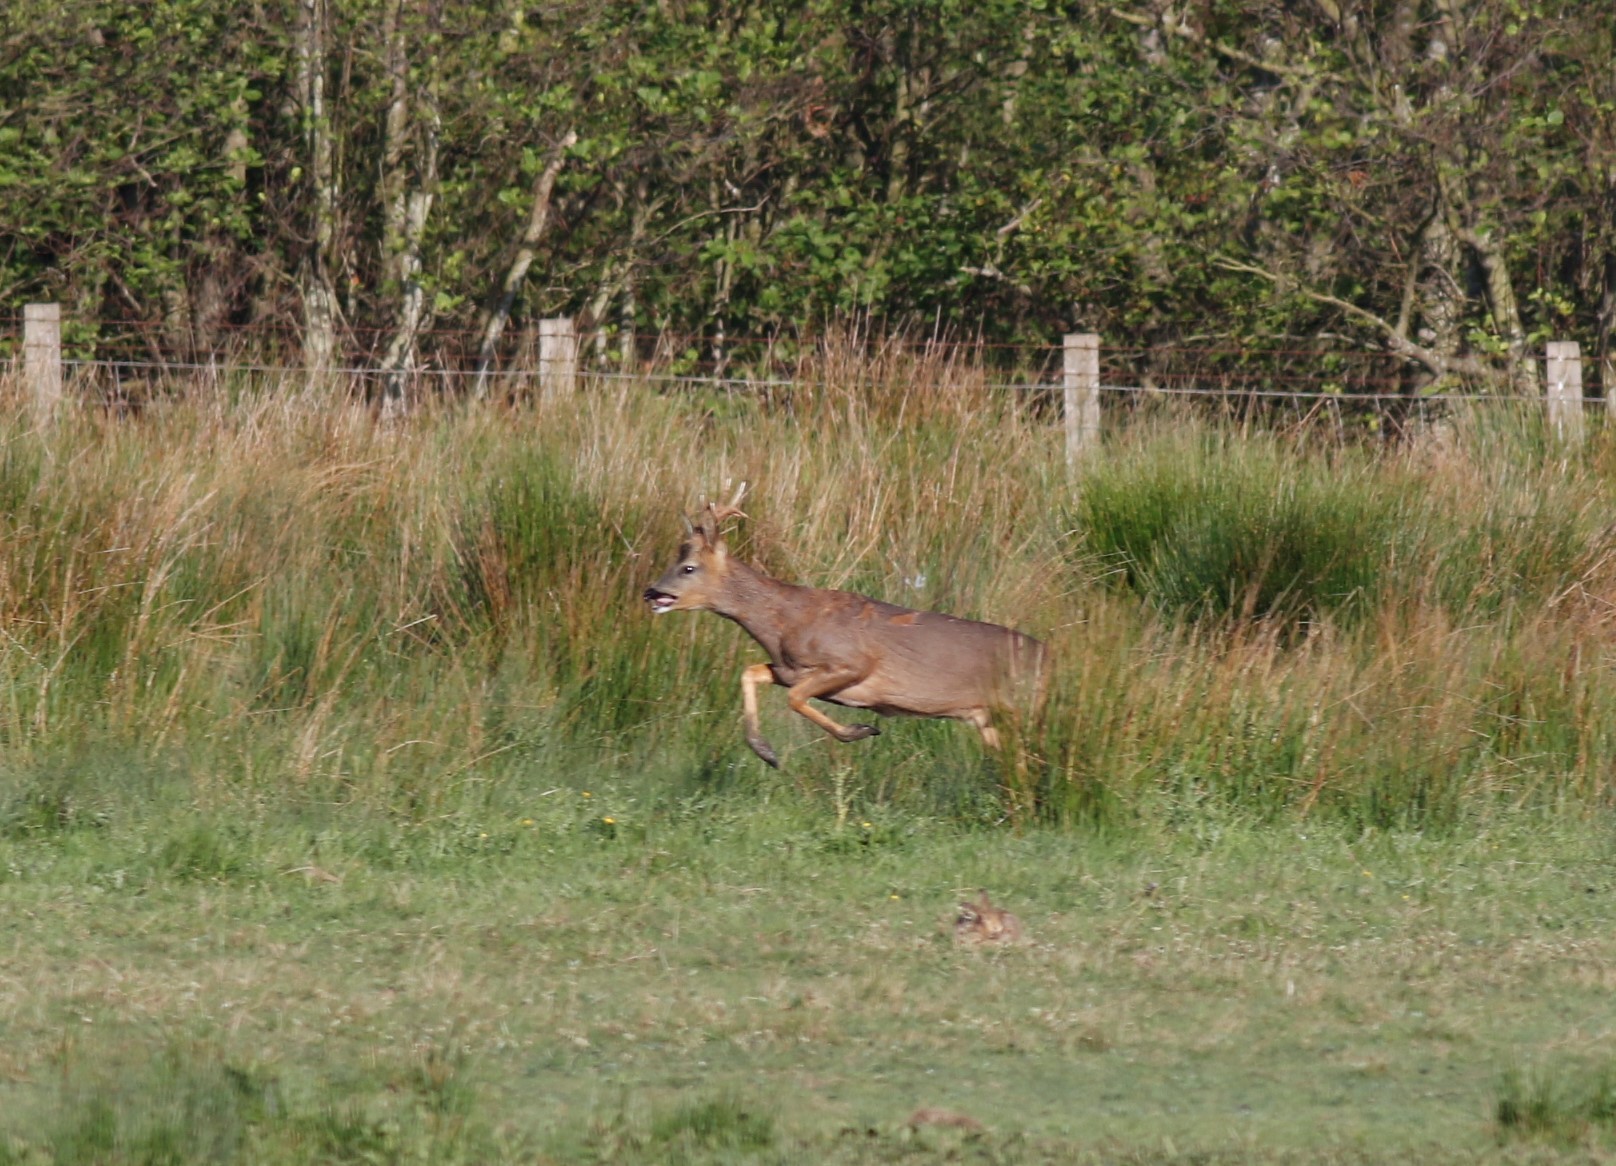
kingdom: Animalia
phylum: Chordata
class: Mammalia
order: Artiodactyla
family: Cervidae
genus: Capreolus
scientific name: Capreolus capreolus
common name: Western roe deer
